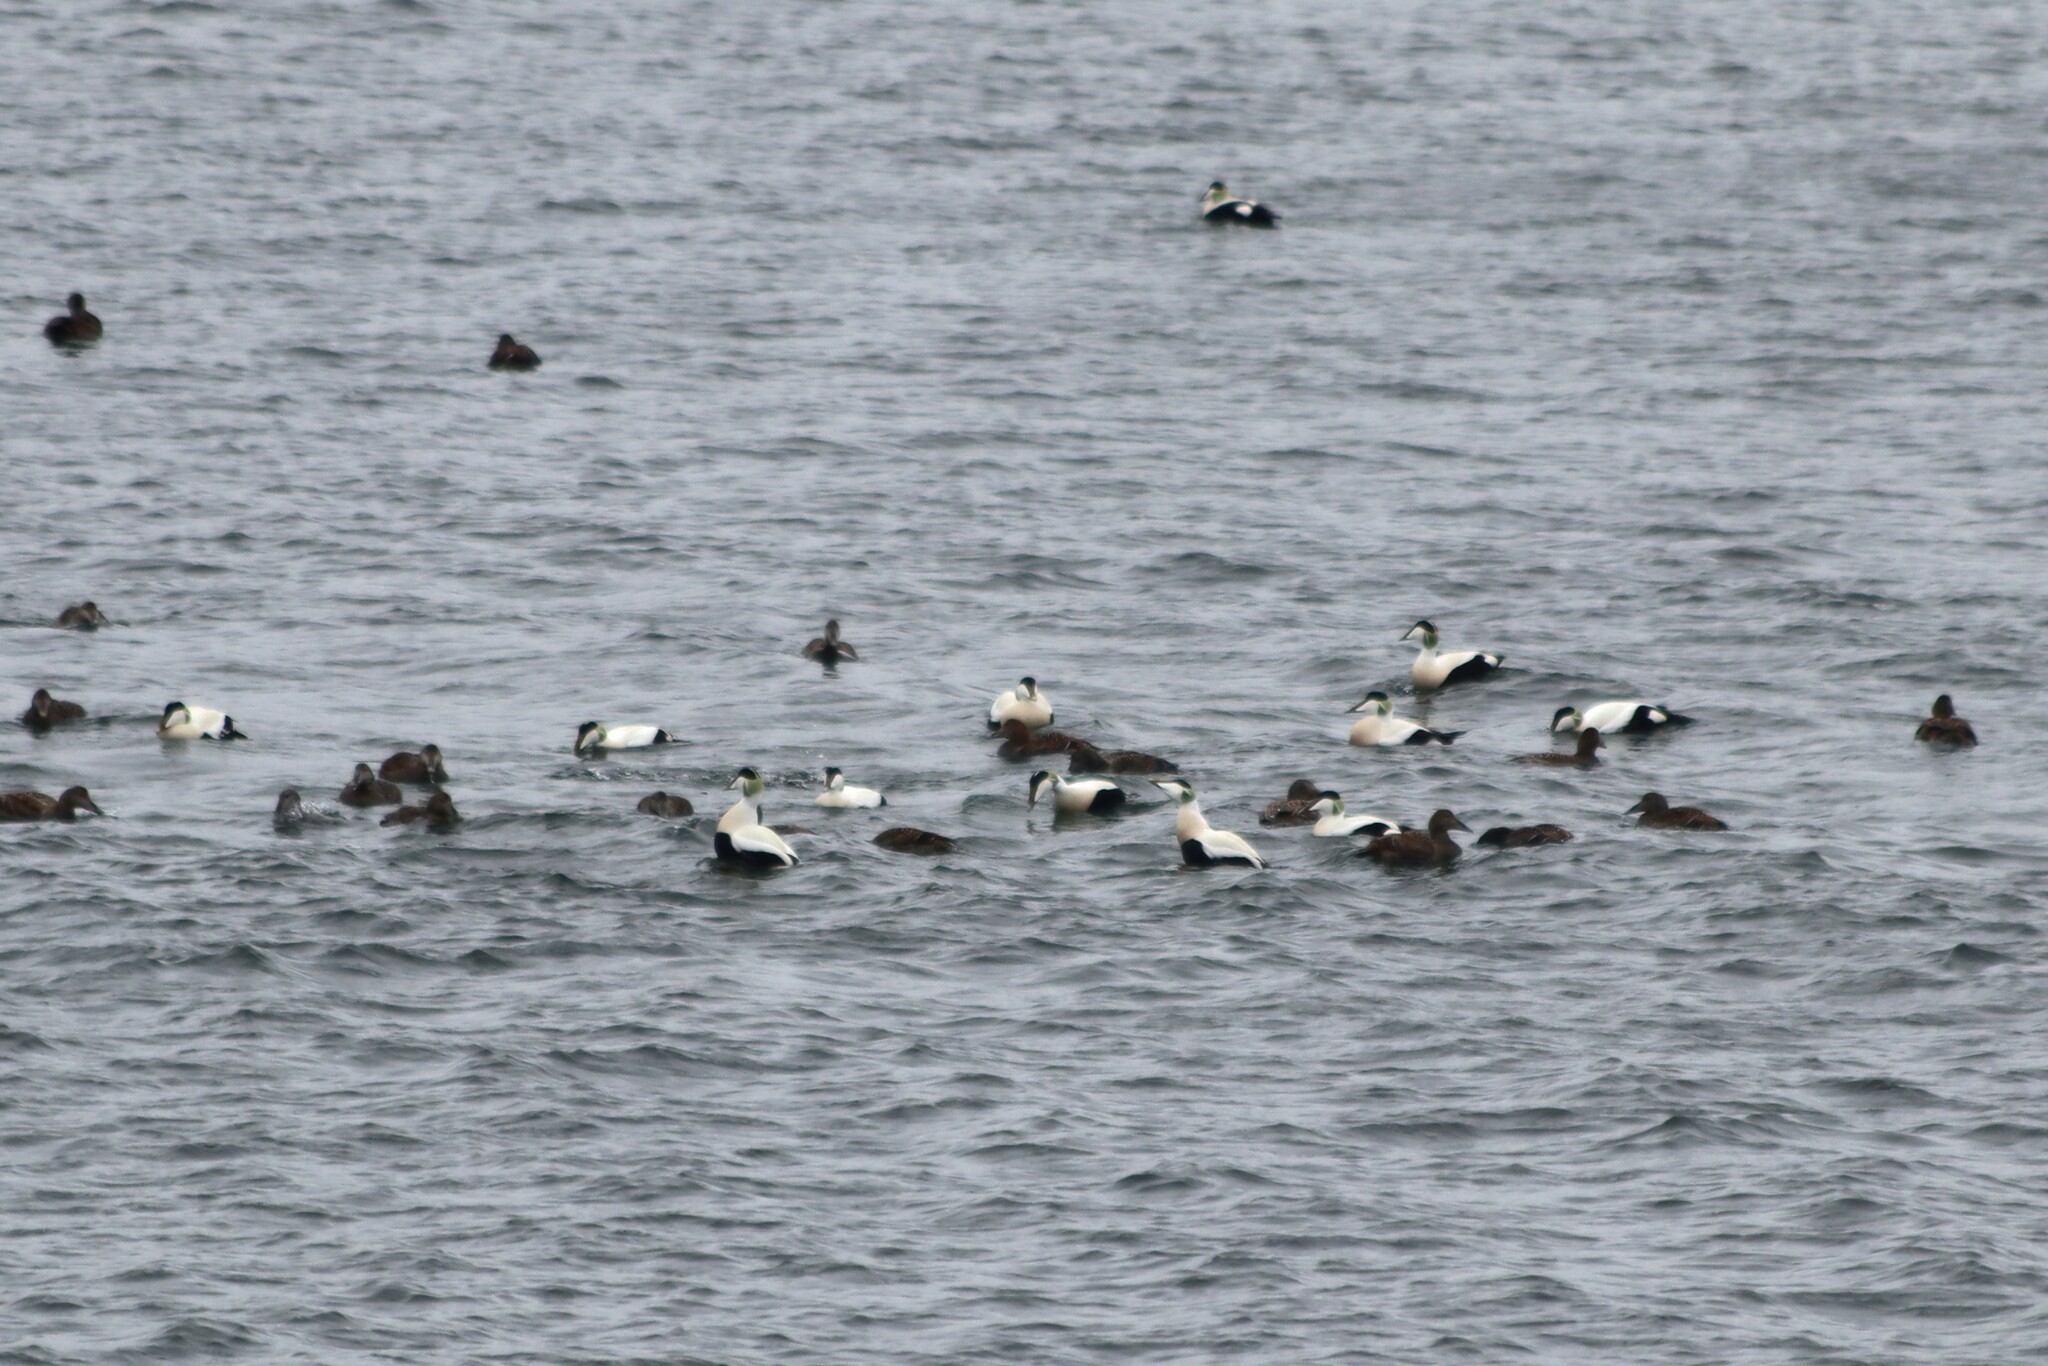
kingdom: Animalia
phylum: Chordata
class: Aves
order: Anseriformes
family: Anatidae
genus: Somateria
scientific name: Somateria mollissima
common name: Common eider
